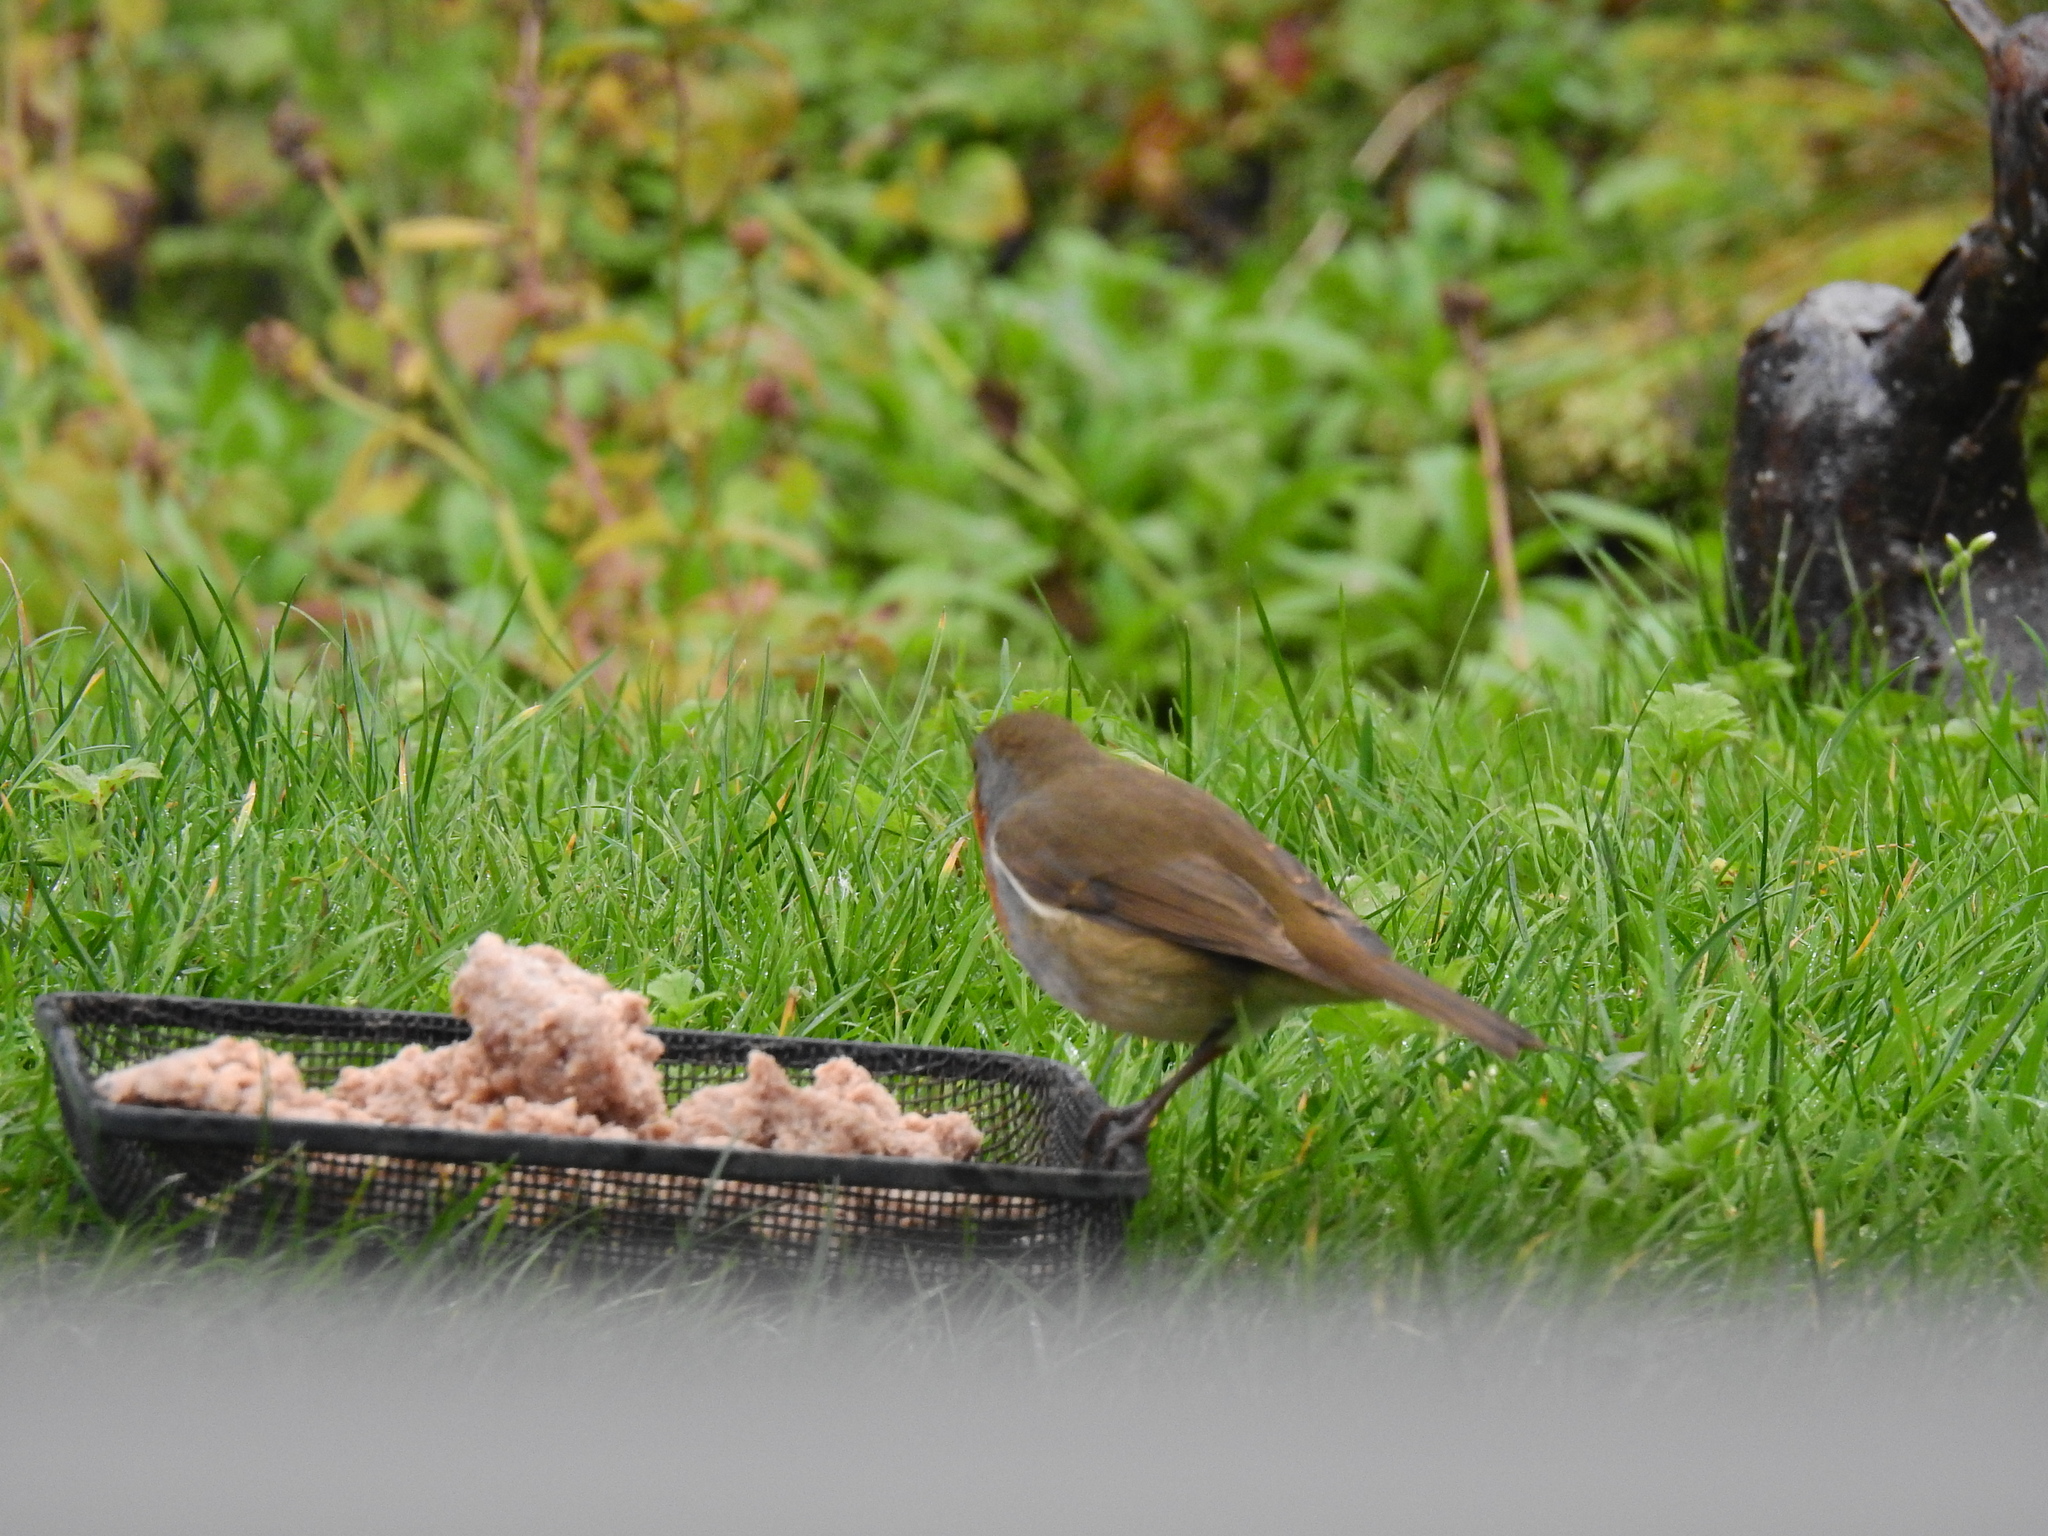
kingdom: Animalia
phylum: Chordata
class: Aves
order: Passeriformes
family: Muscicapidae
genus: Erithacus
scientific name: Erithacus rubecula
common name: European robin
